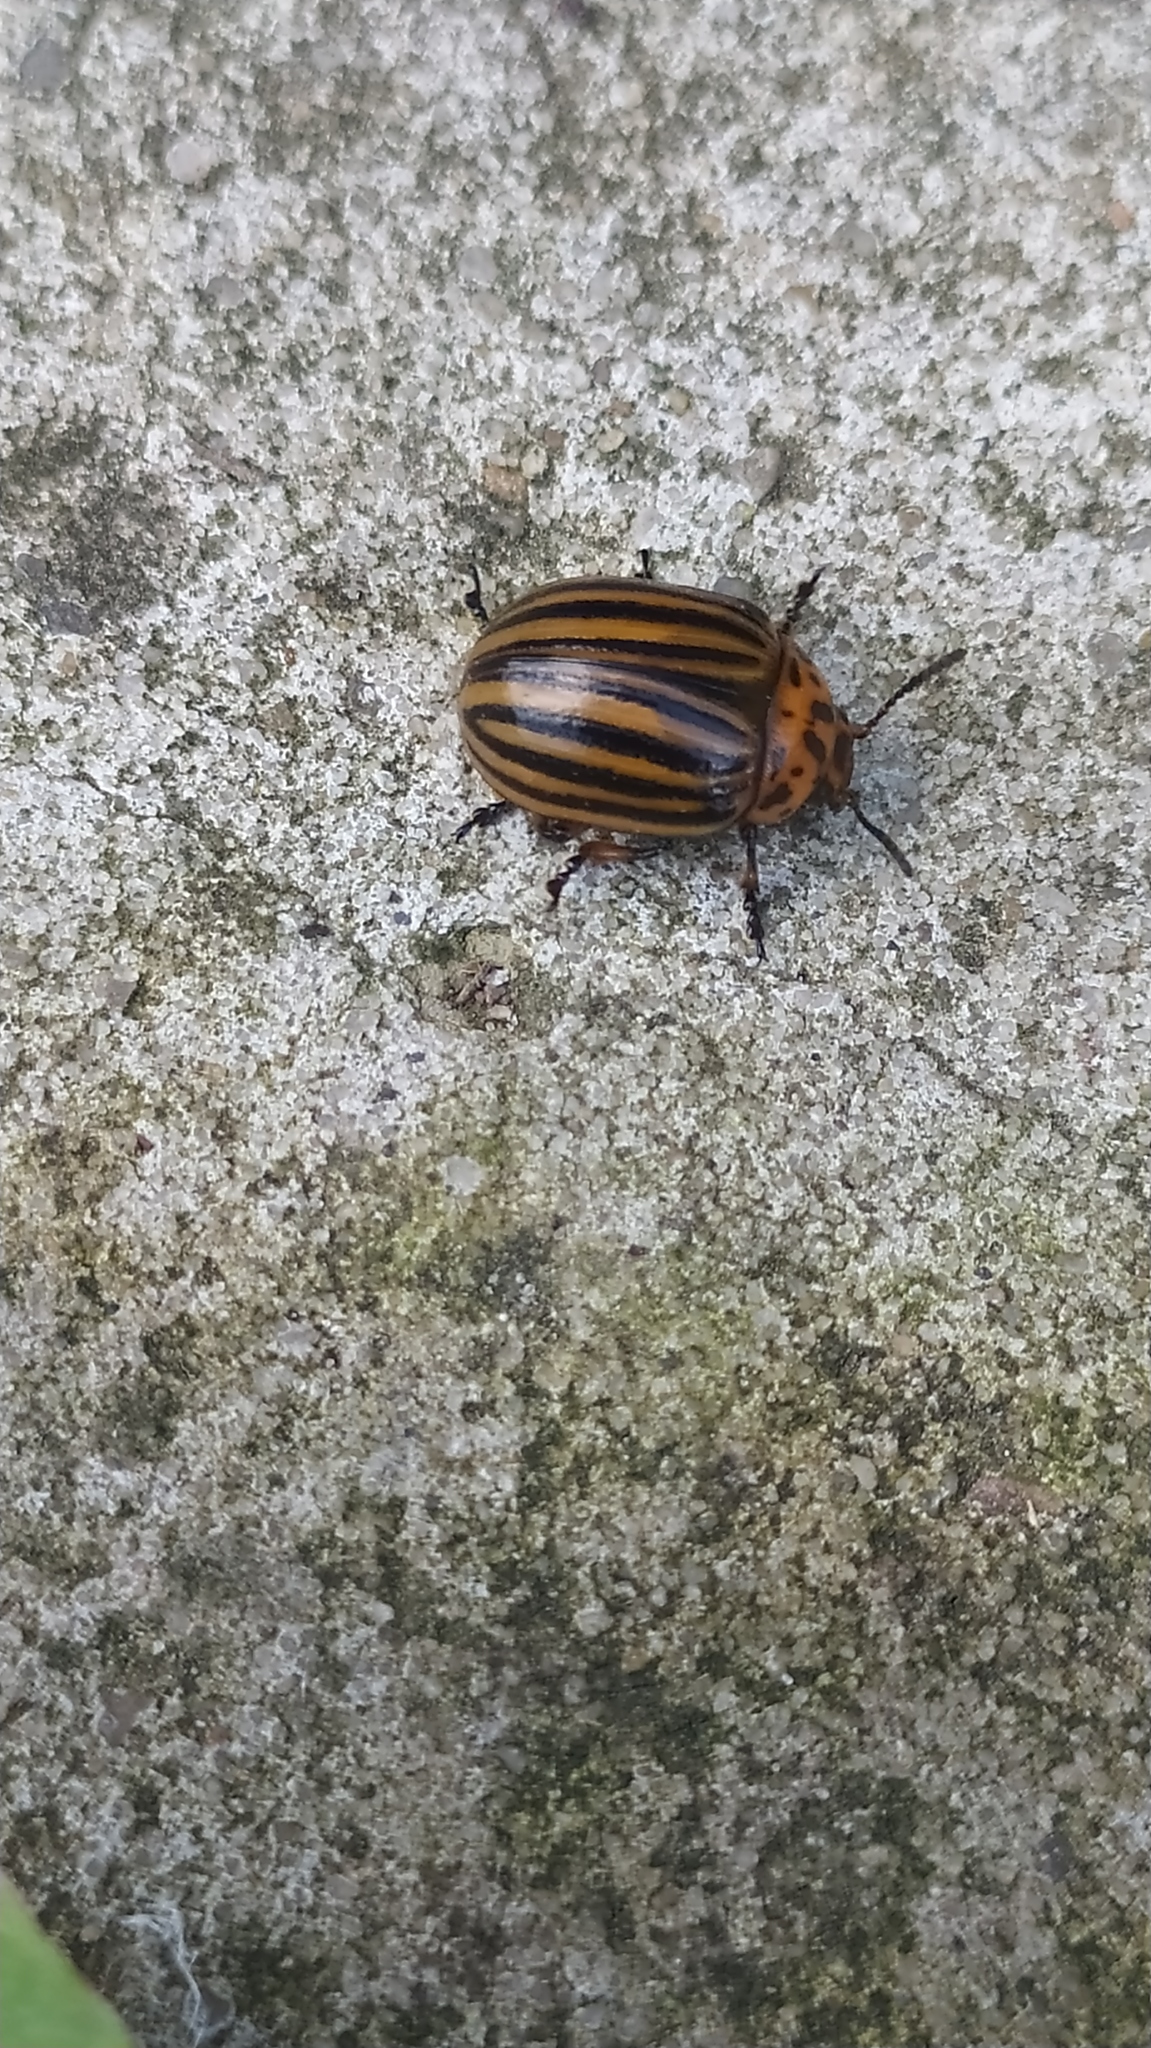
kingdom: Animalia
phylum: Arthropoda
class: Insecta
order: Coleoptera
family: Chrysomelidae
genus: Leptinotarsa
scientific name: Leptinotarsa decemlineata
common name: Colorado potato beetle
